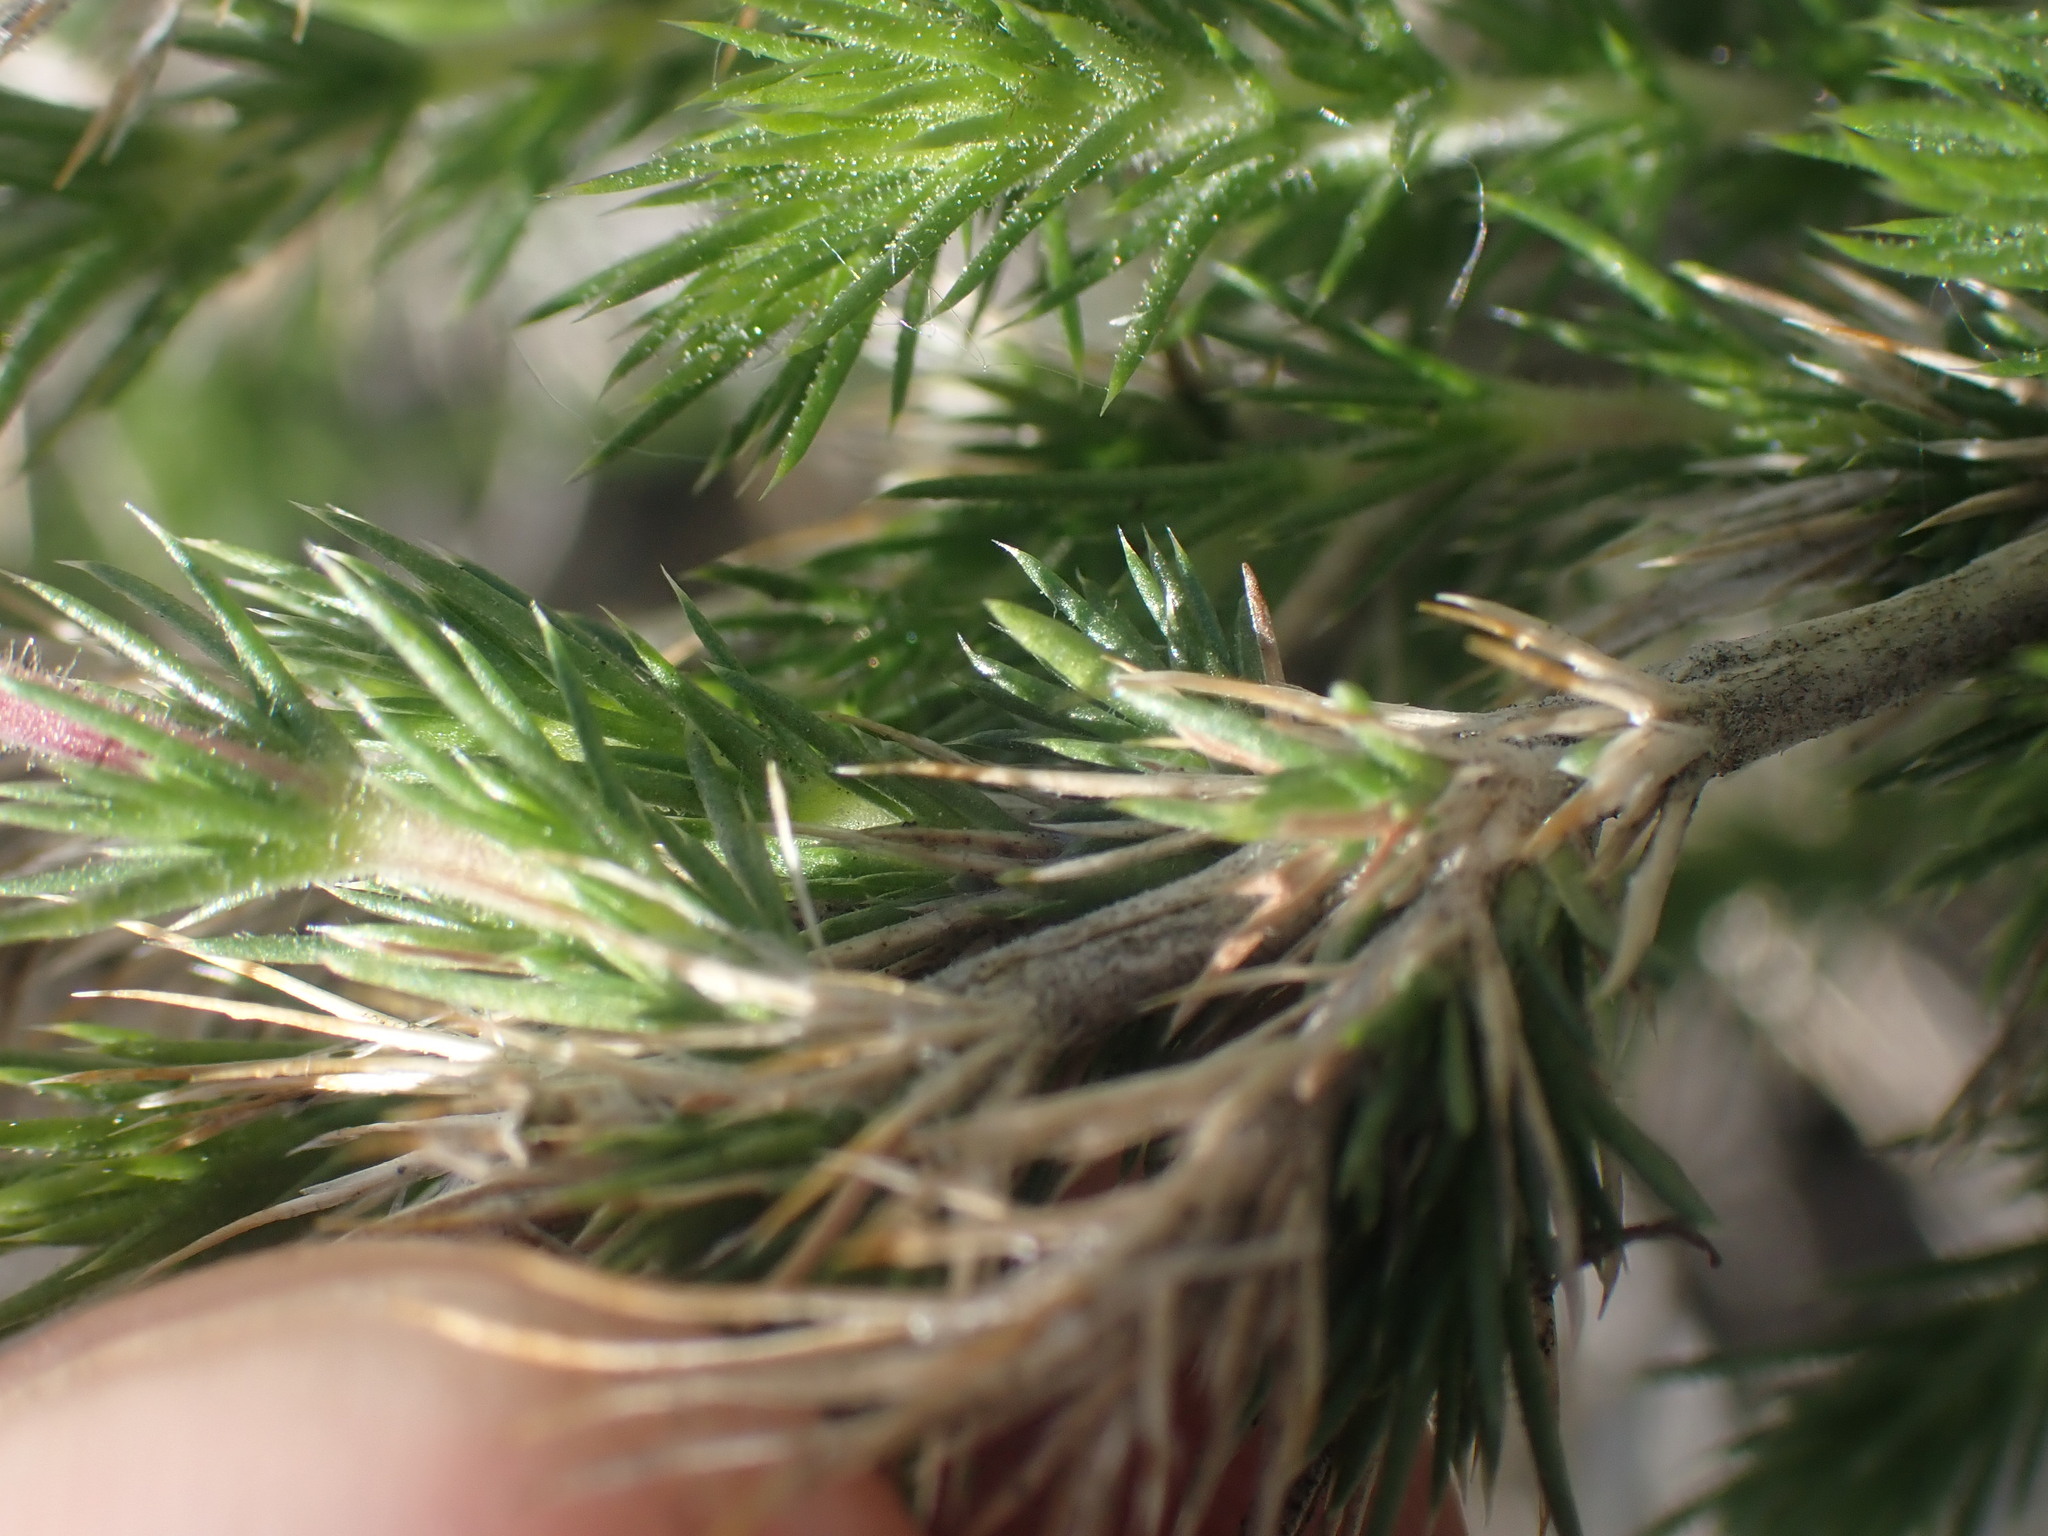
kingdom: Plantae
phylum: Tracheophyta
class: Magnoliopsida
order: Ericales
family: Polemoniaceae
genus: Linanthus
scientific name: Linanthus pungens
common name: Granite prickly phlox
